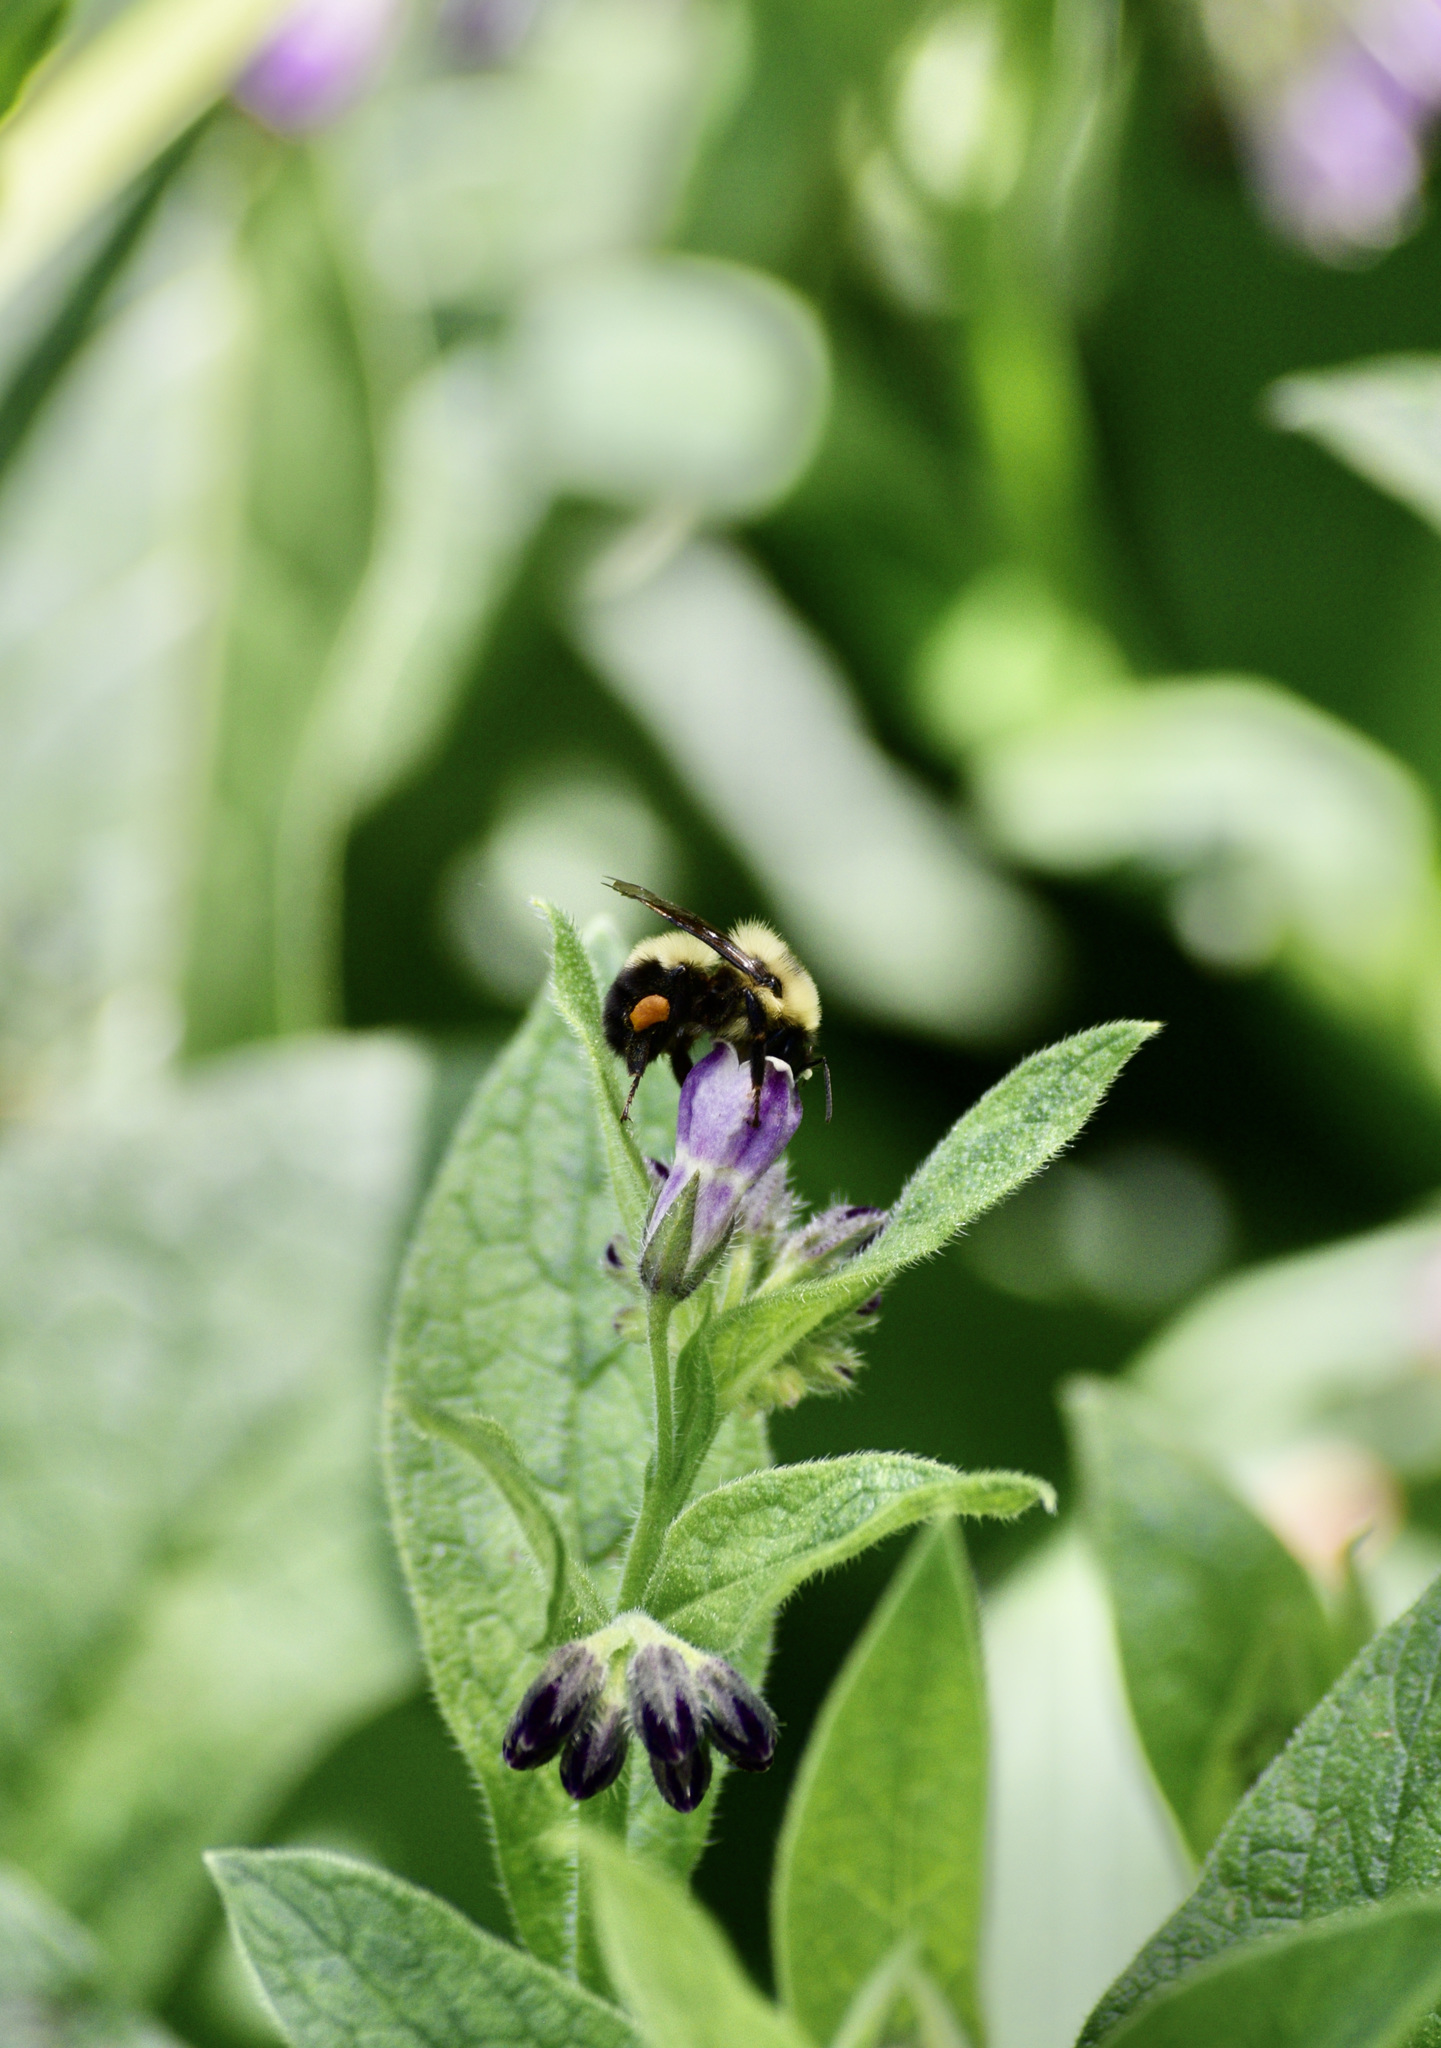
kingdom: Animalia
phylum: Arthropoda
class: Insecta
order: Hymenoptera
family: Apidae
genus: Bombus
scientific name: Bombus bimaculatus
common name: Two-spotted bumble bee
